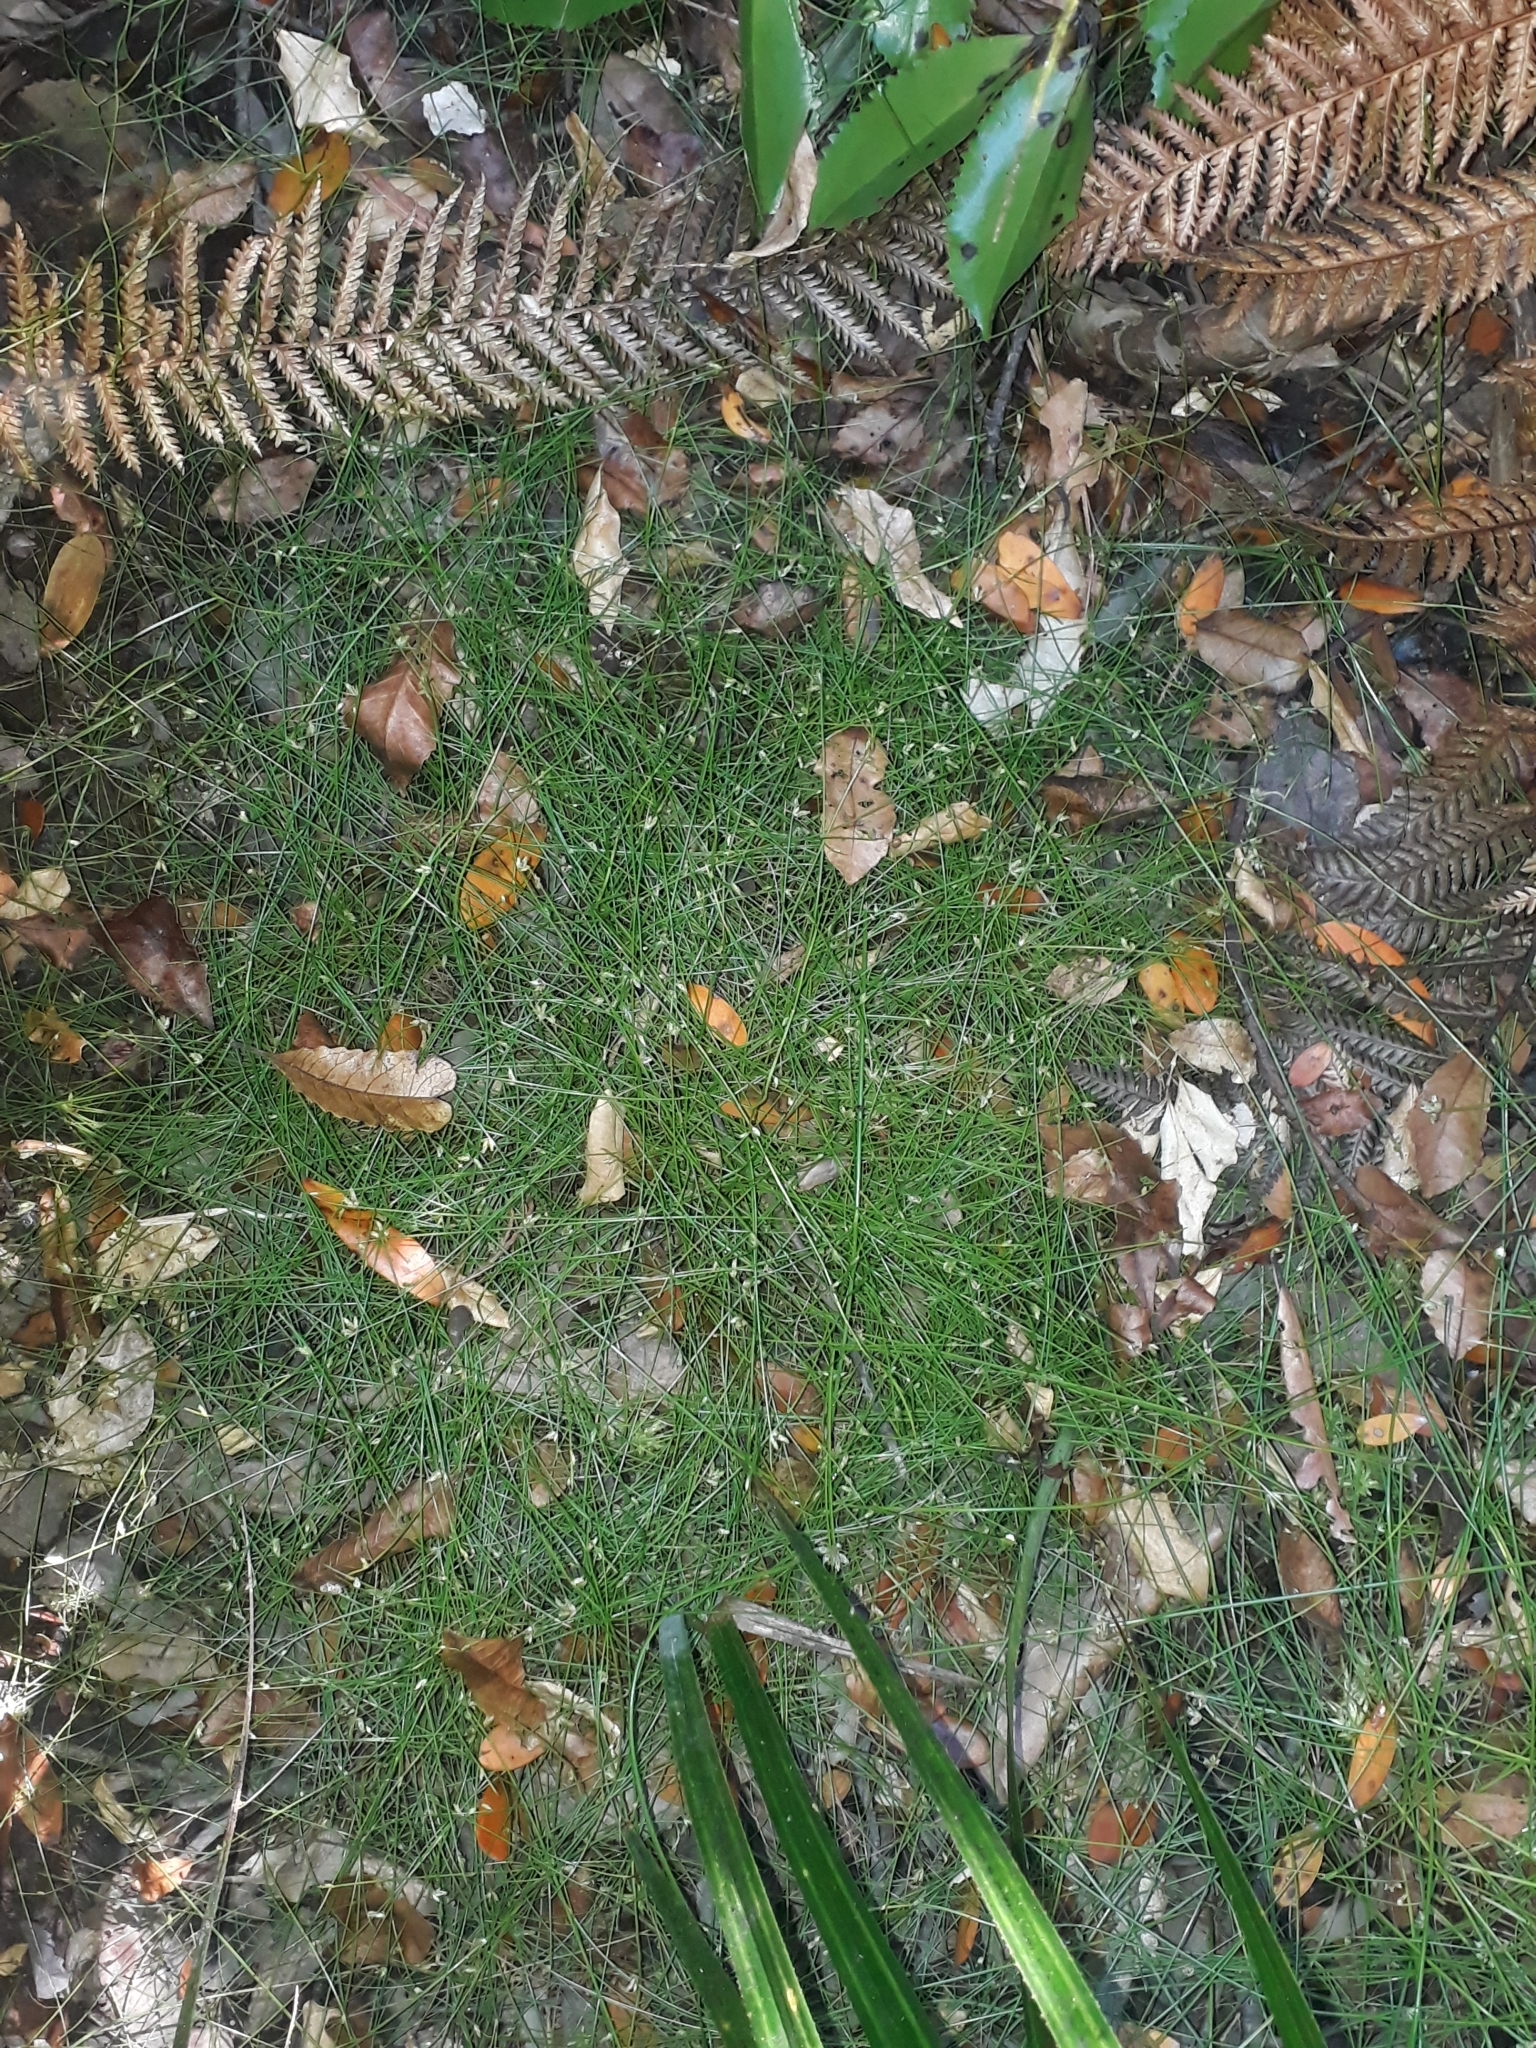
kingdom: Plantae
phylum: Tracheophyta
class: Liliopsida
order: Poales
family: Cyperaceae
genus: Isolepis
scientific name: Isolepis reticularis
